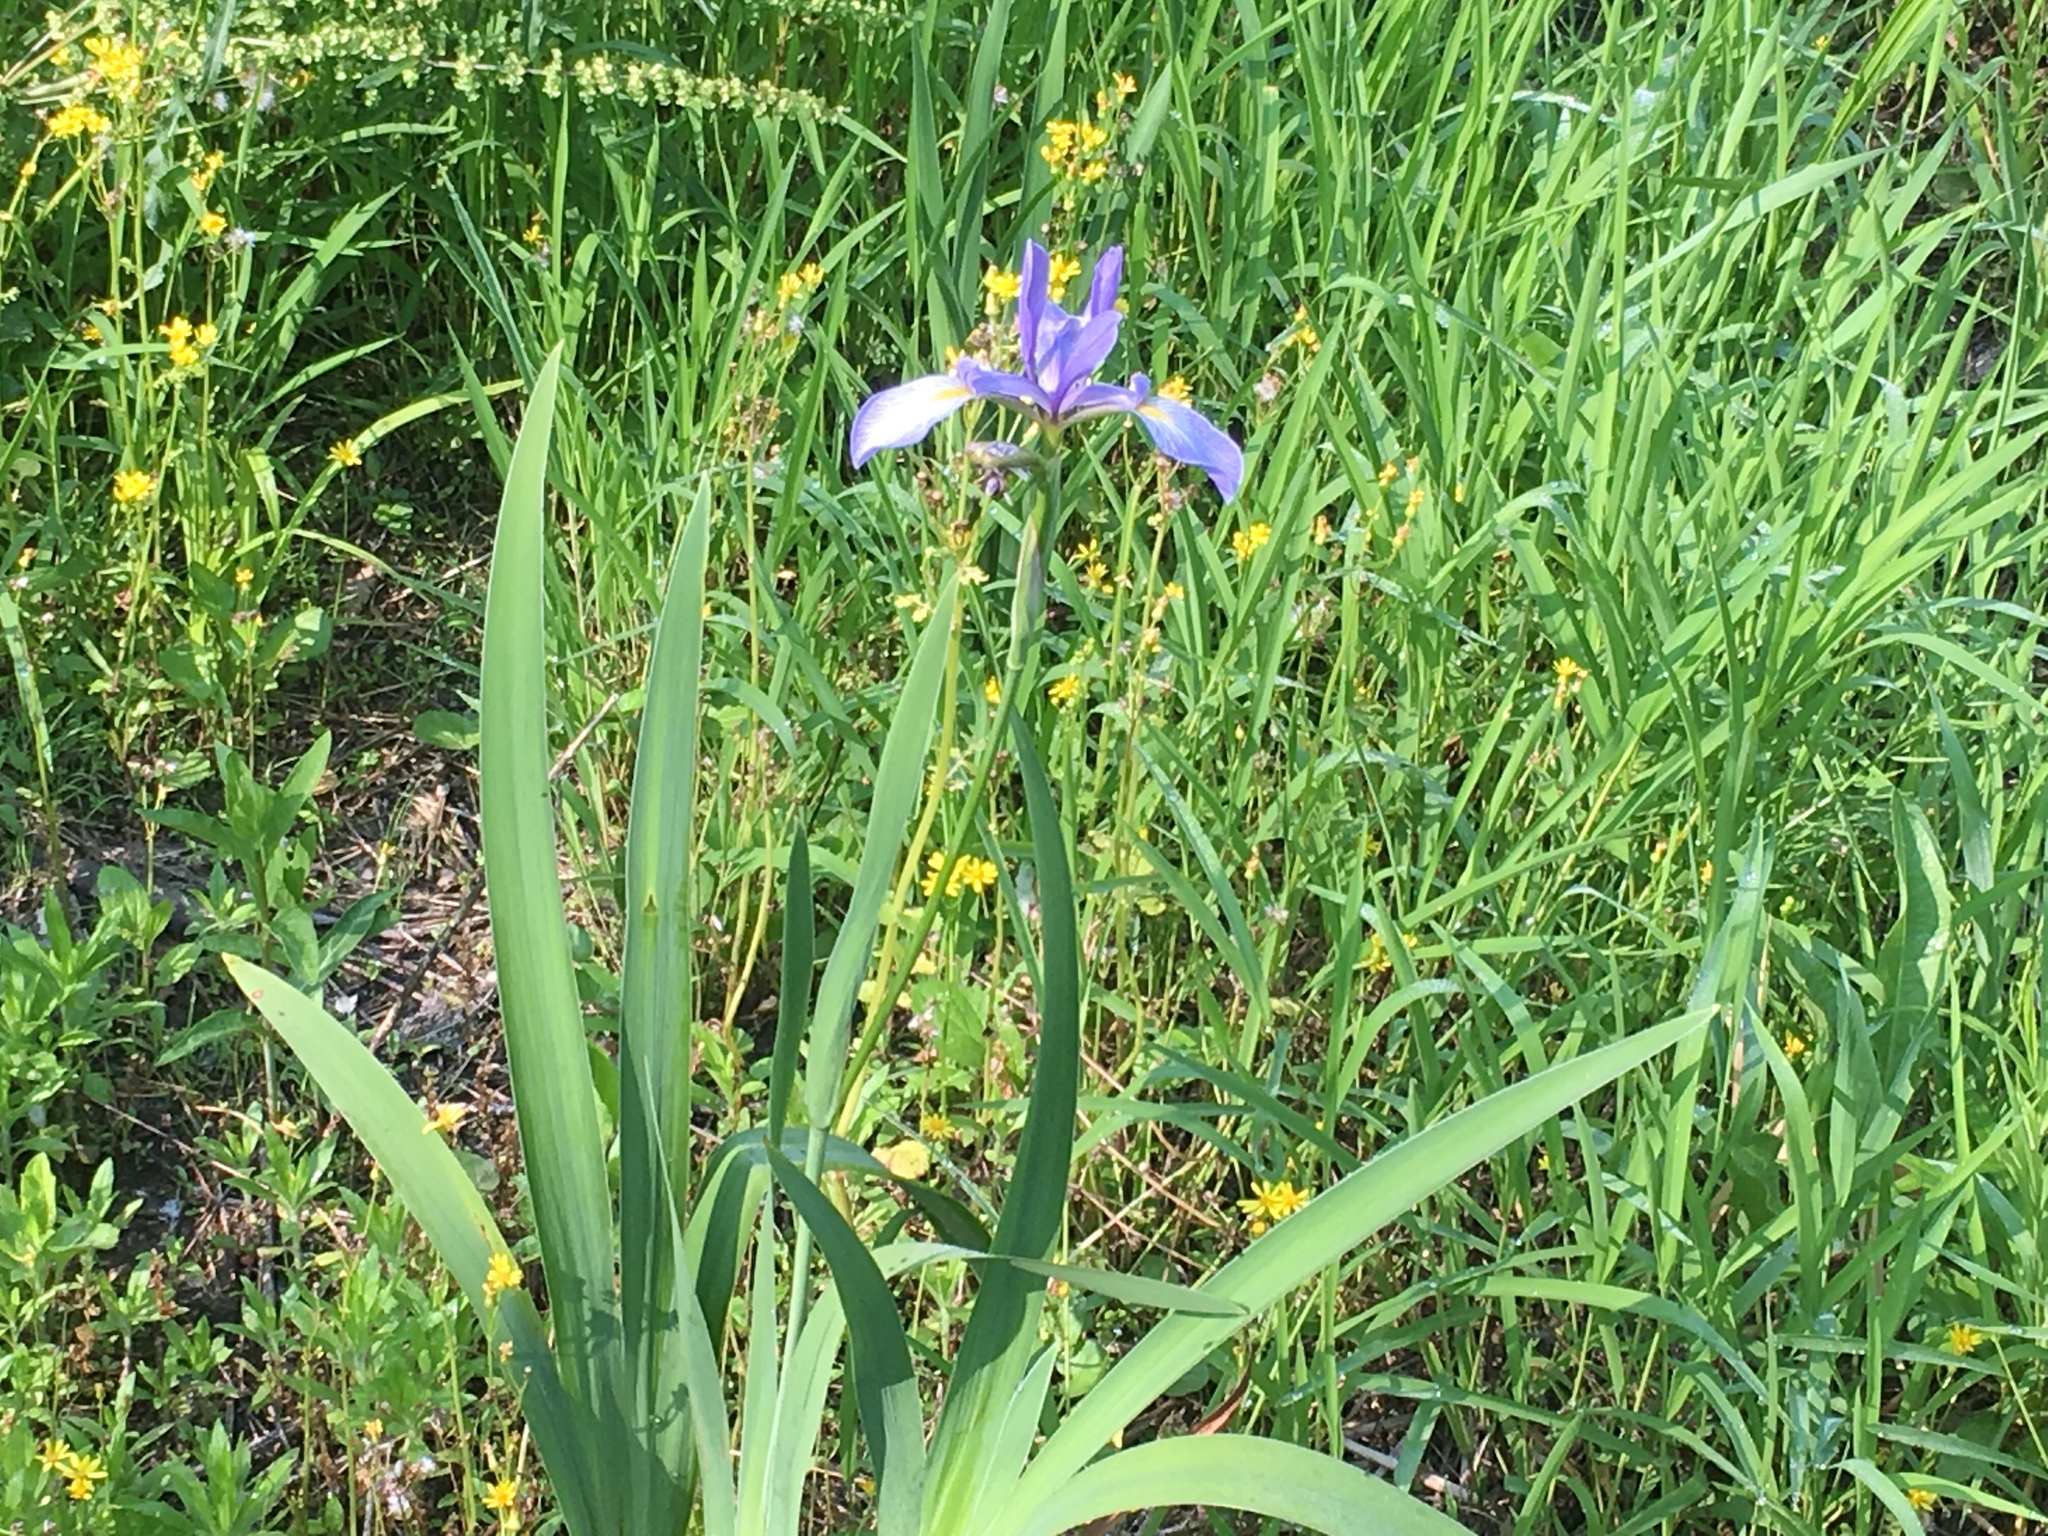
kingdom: Plantae
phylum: Tracheophyta
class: Liliopsida
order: Asparagales
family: Iridaceae
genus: Iris
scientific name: Iris virginica
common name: Southern blue flag
